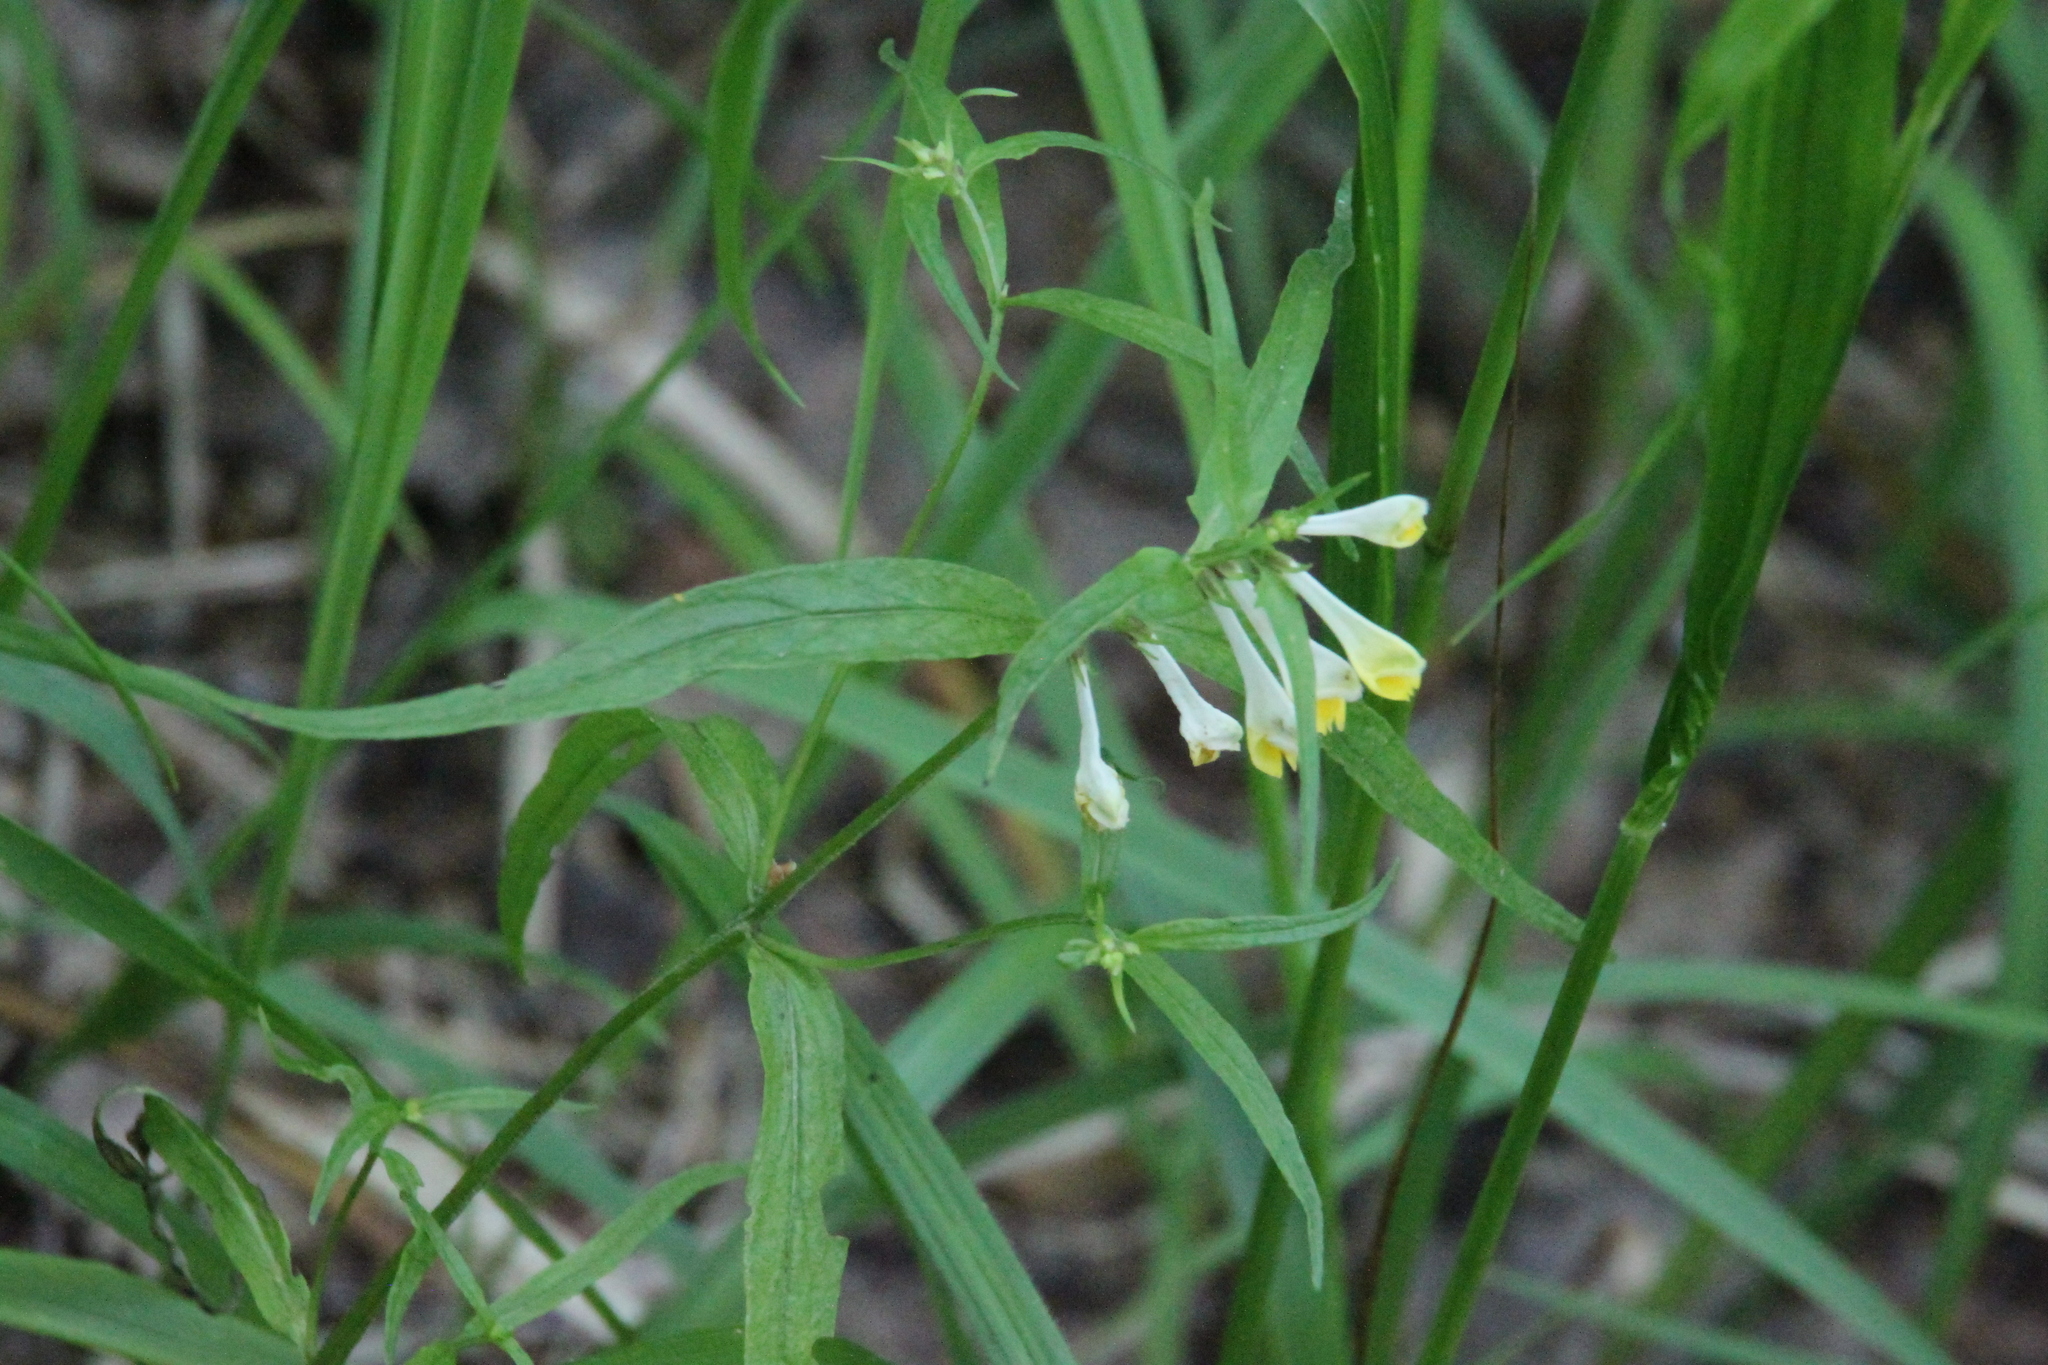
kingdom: Plantae
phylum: Tracheophyta
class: Magnoliopsida
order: Lamiales
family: Orobanchaceae
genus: Melampyrum
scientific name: Melampyrum pratense
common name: Common cow-wheat
